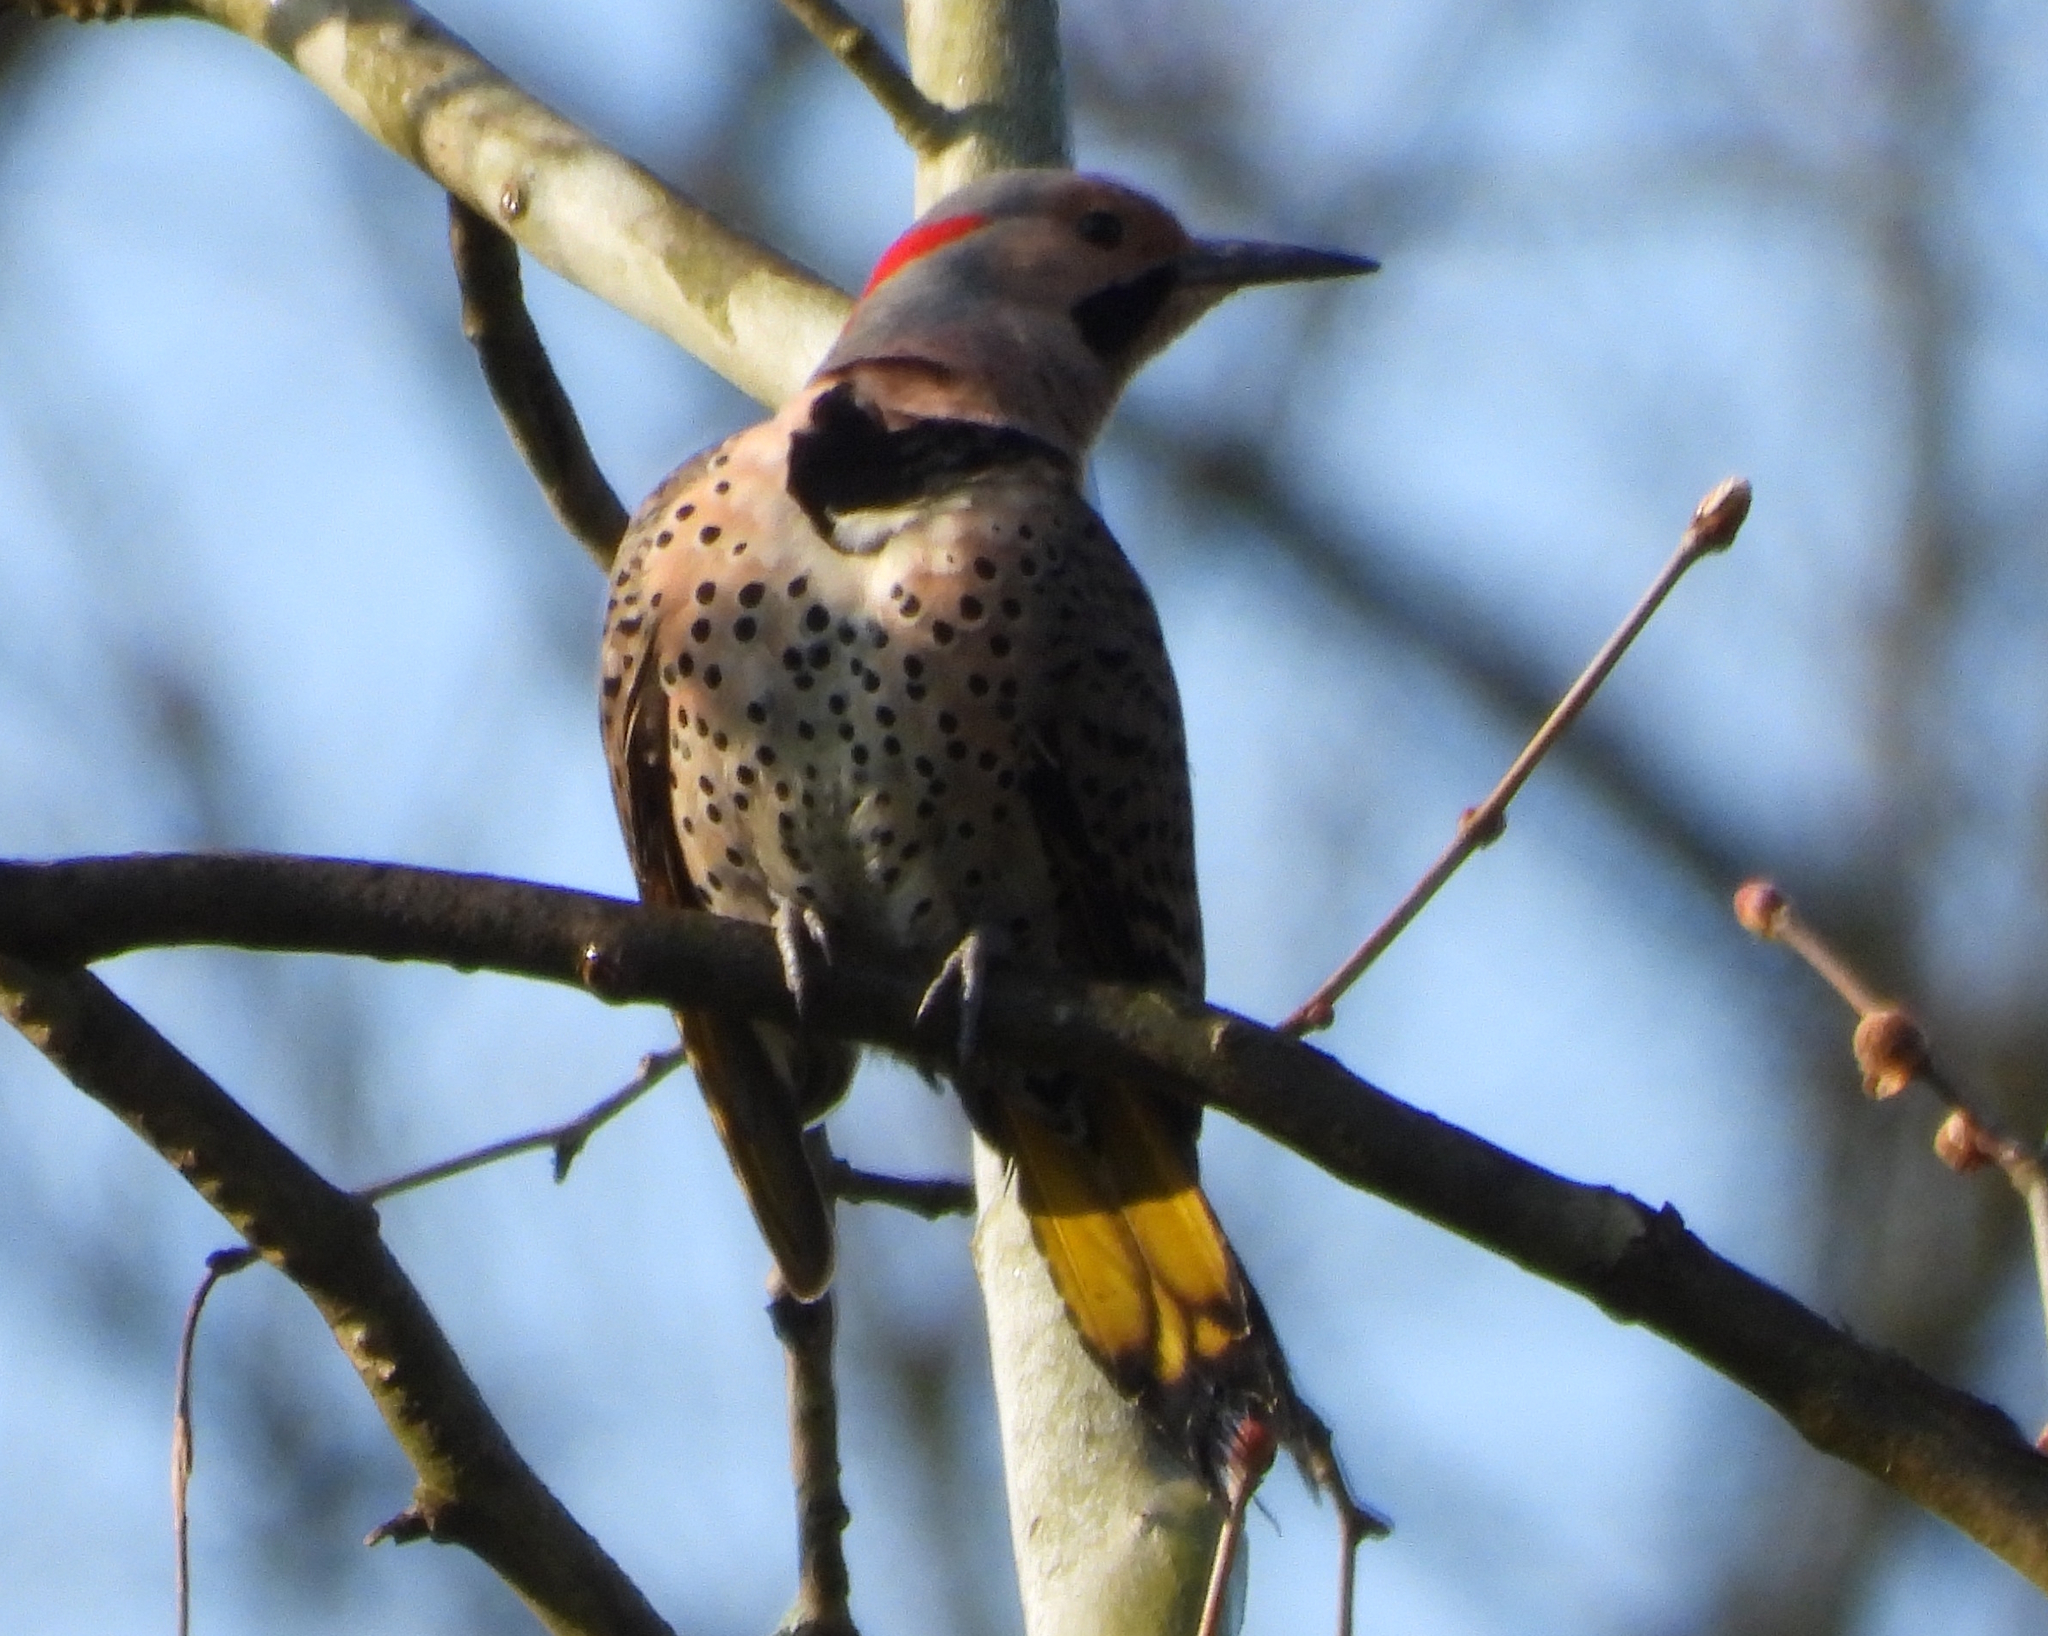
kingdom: Animalia
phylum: Chordata
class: Aves
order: Piciformes
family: Picidae
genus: Colaptes
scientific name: Colaptes auratus
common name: Northern flicker
